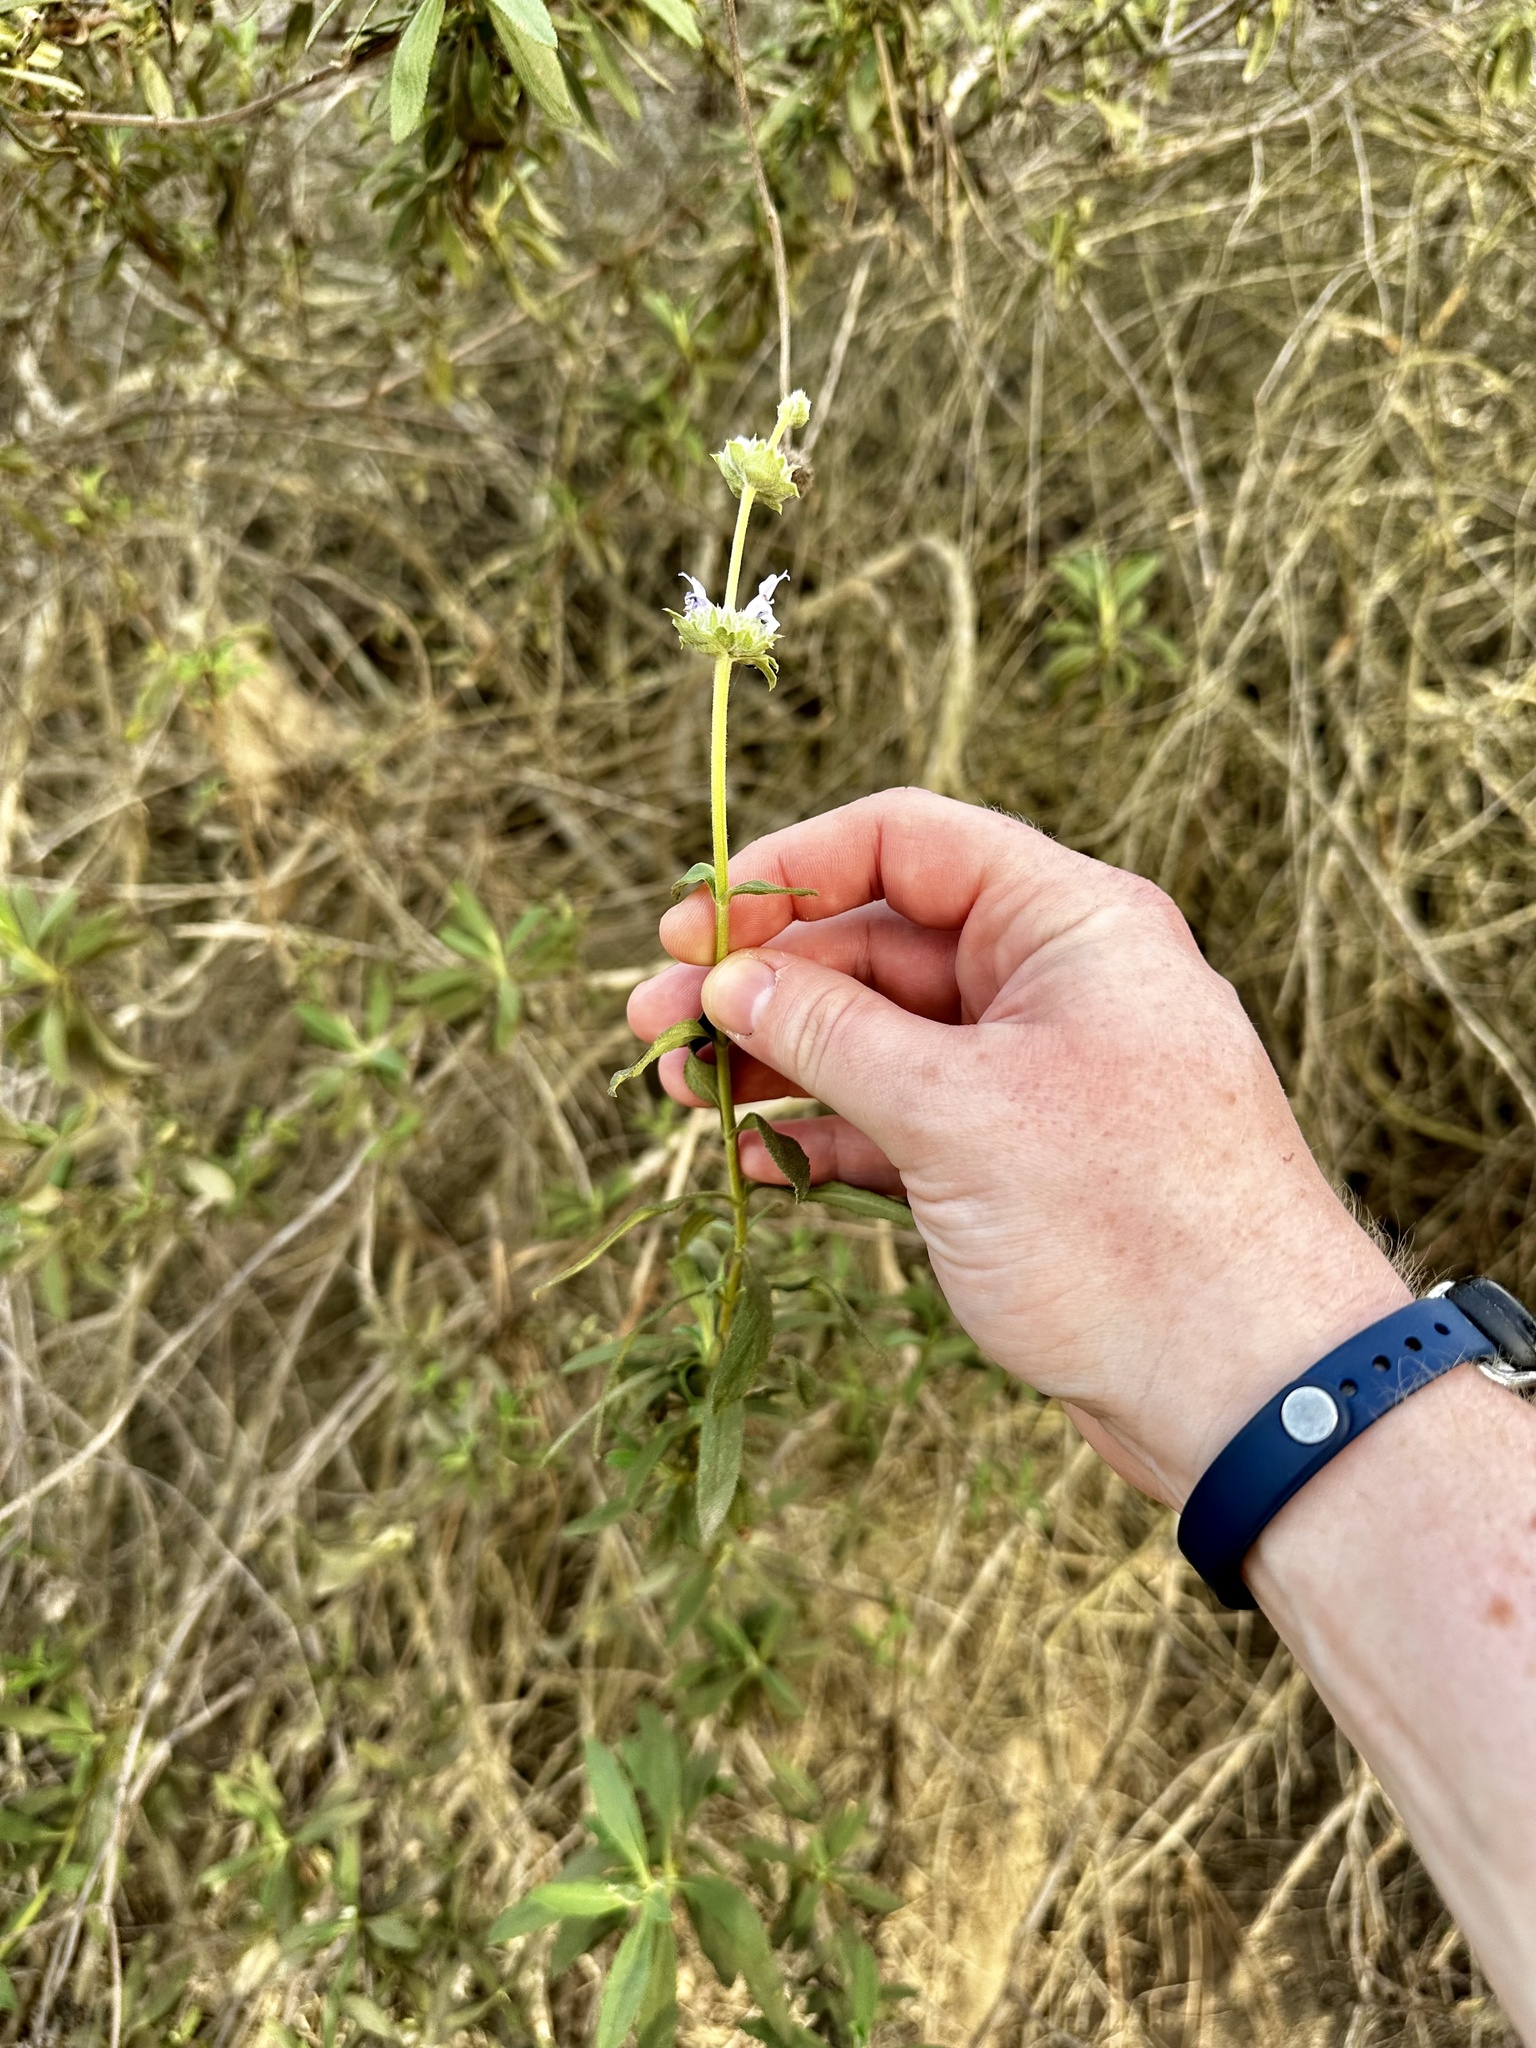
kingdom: Plantae
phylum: Tracheophyta
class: Magnoliopsida
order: Lamiales
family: Lamiaceae
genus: Salvia
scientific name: Salvia mellifera
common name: Black sage
